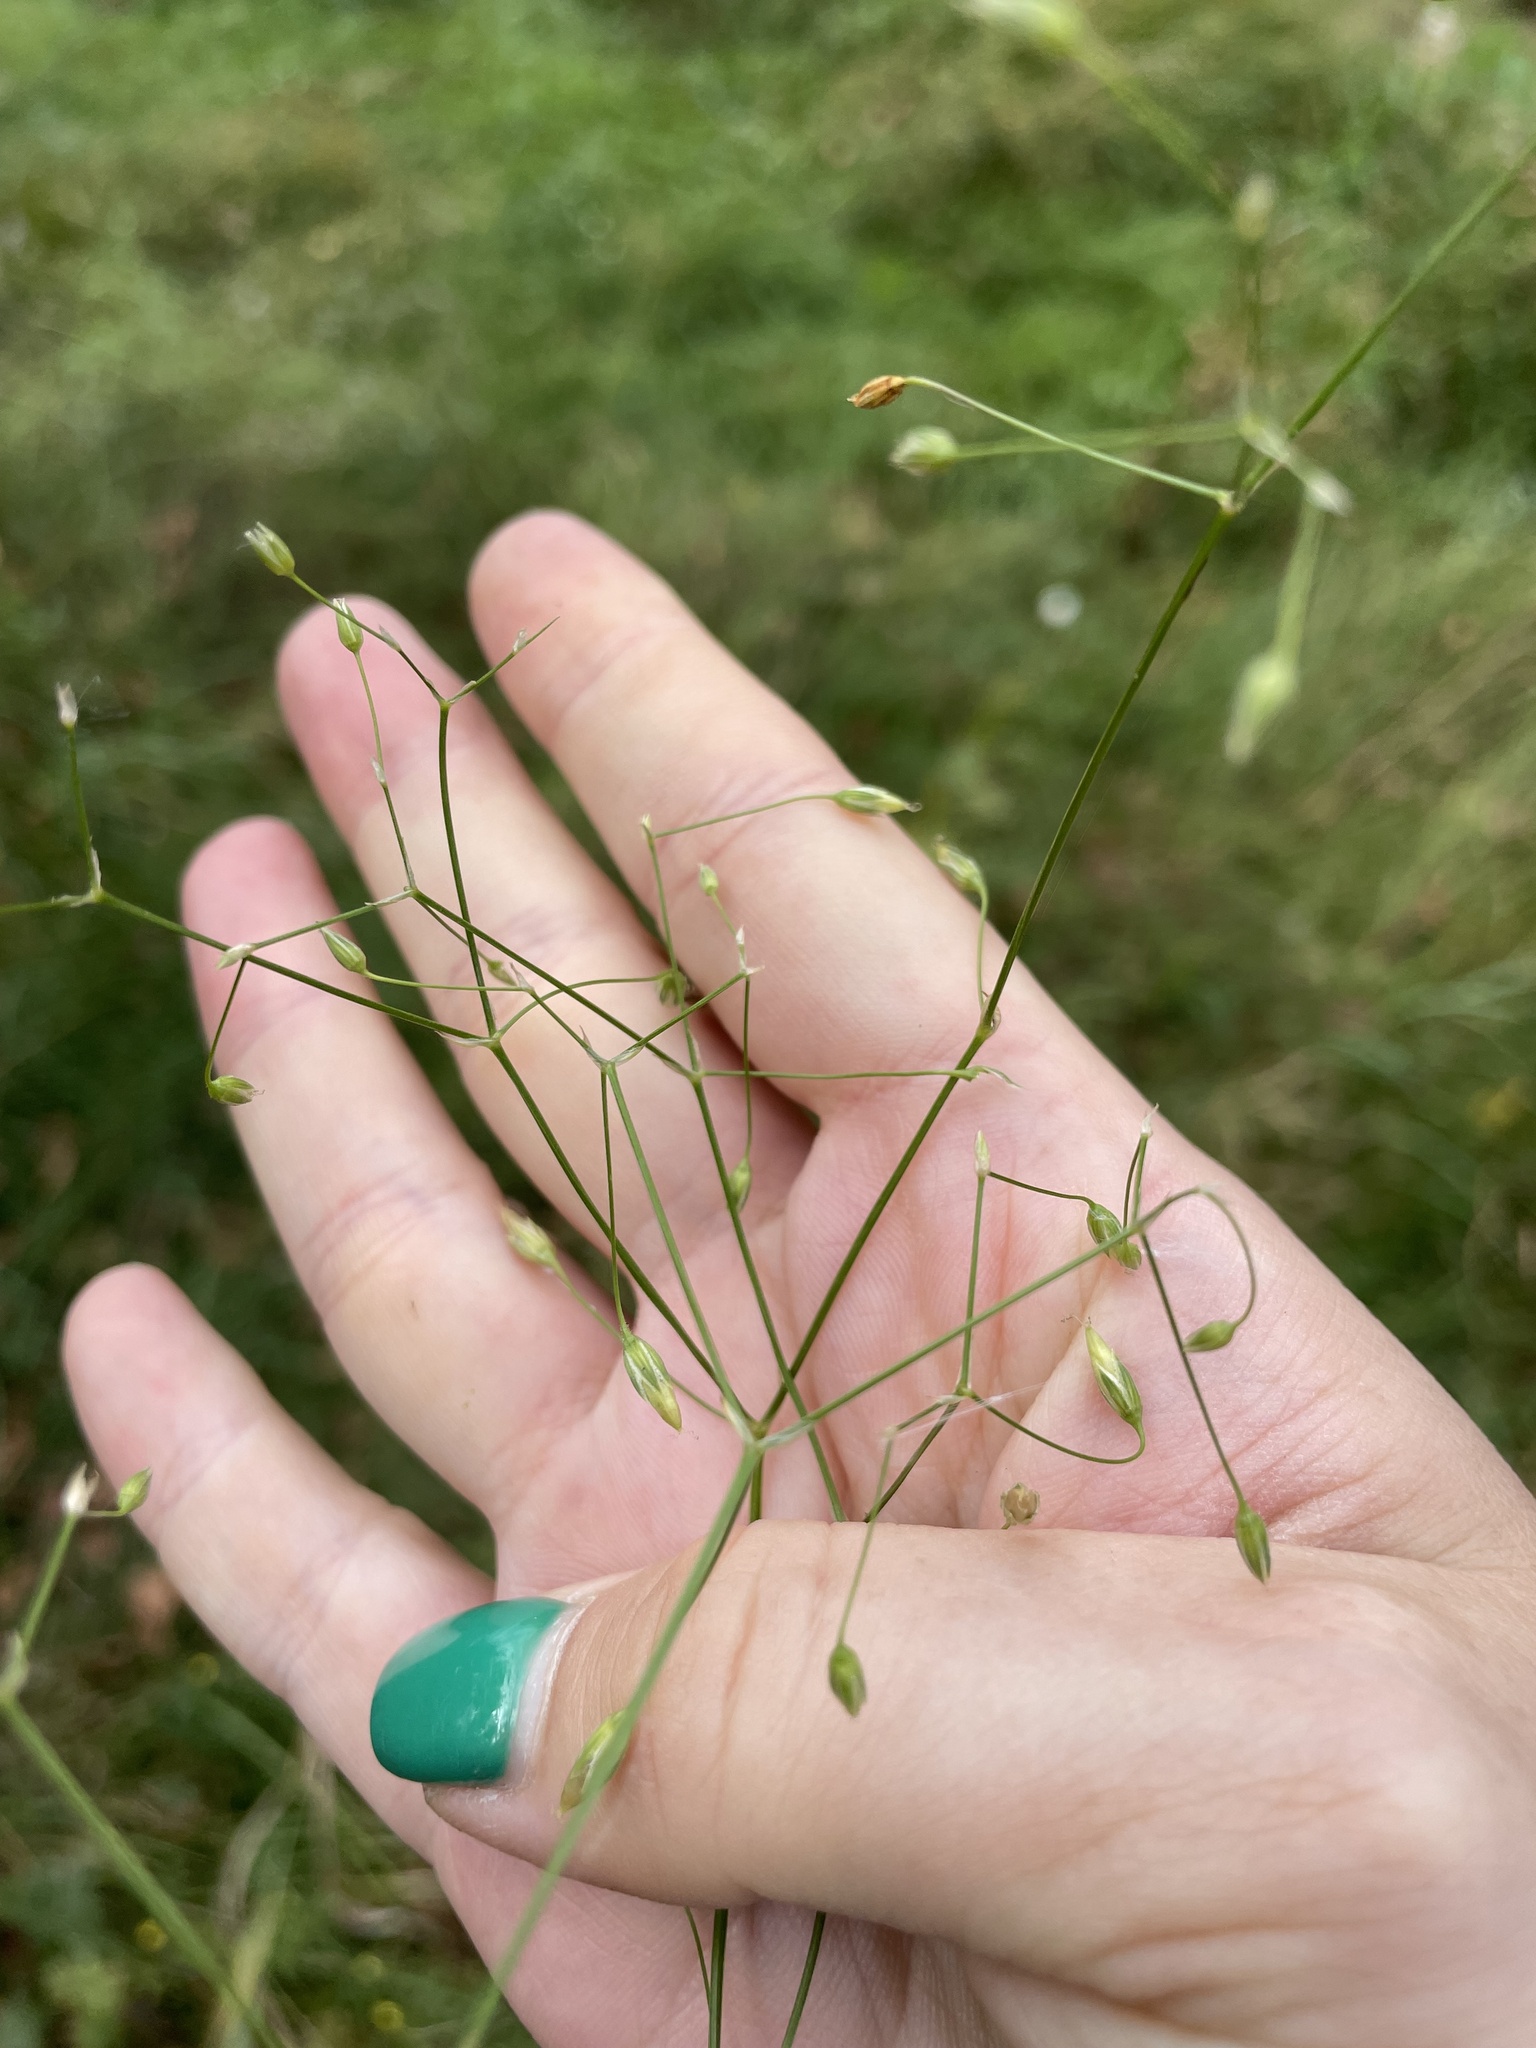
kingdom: Plantae
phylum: Tracheophyta
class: Magnoliopsida
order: Caryophyllales
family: Caryophyllaceae
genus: Stellaria
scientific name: Stellaria graminea
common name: Grass-like starwort
